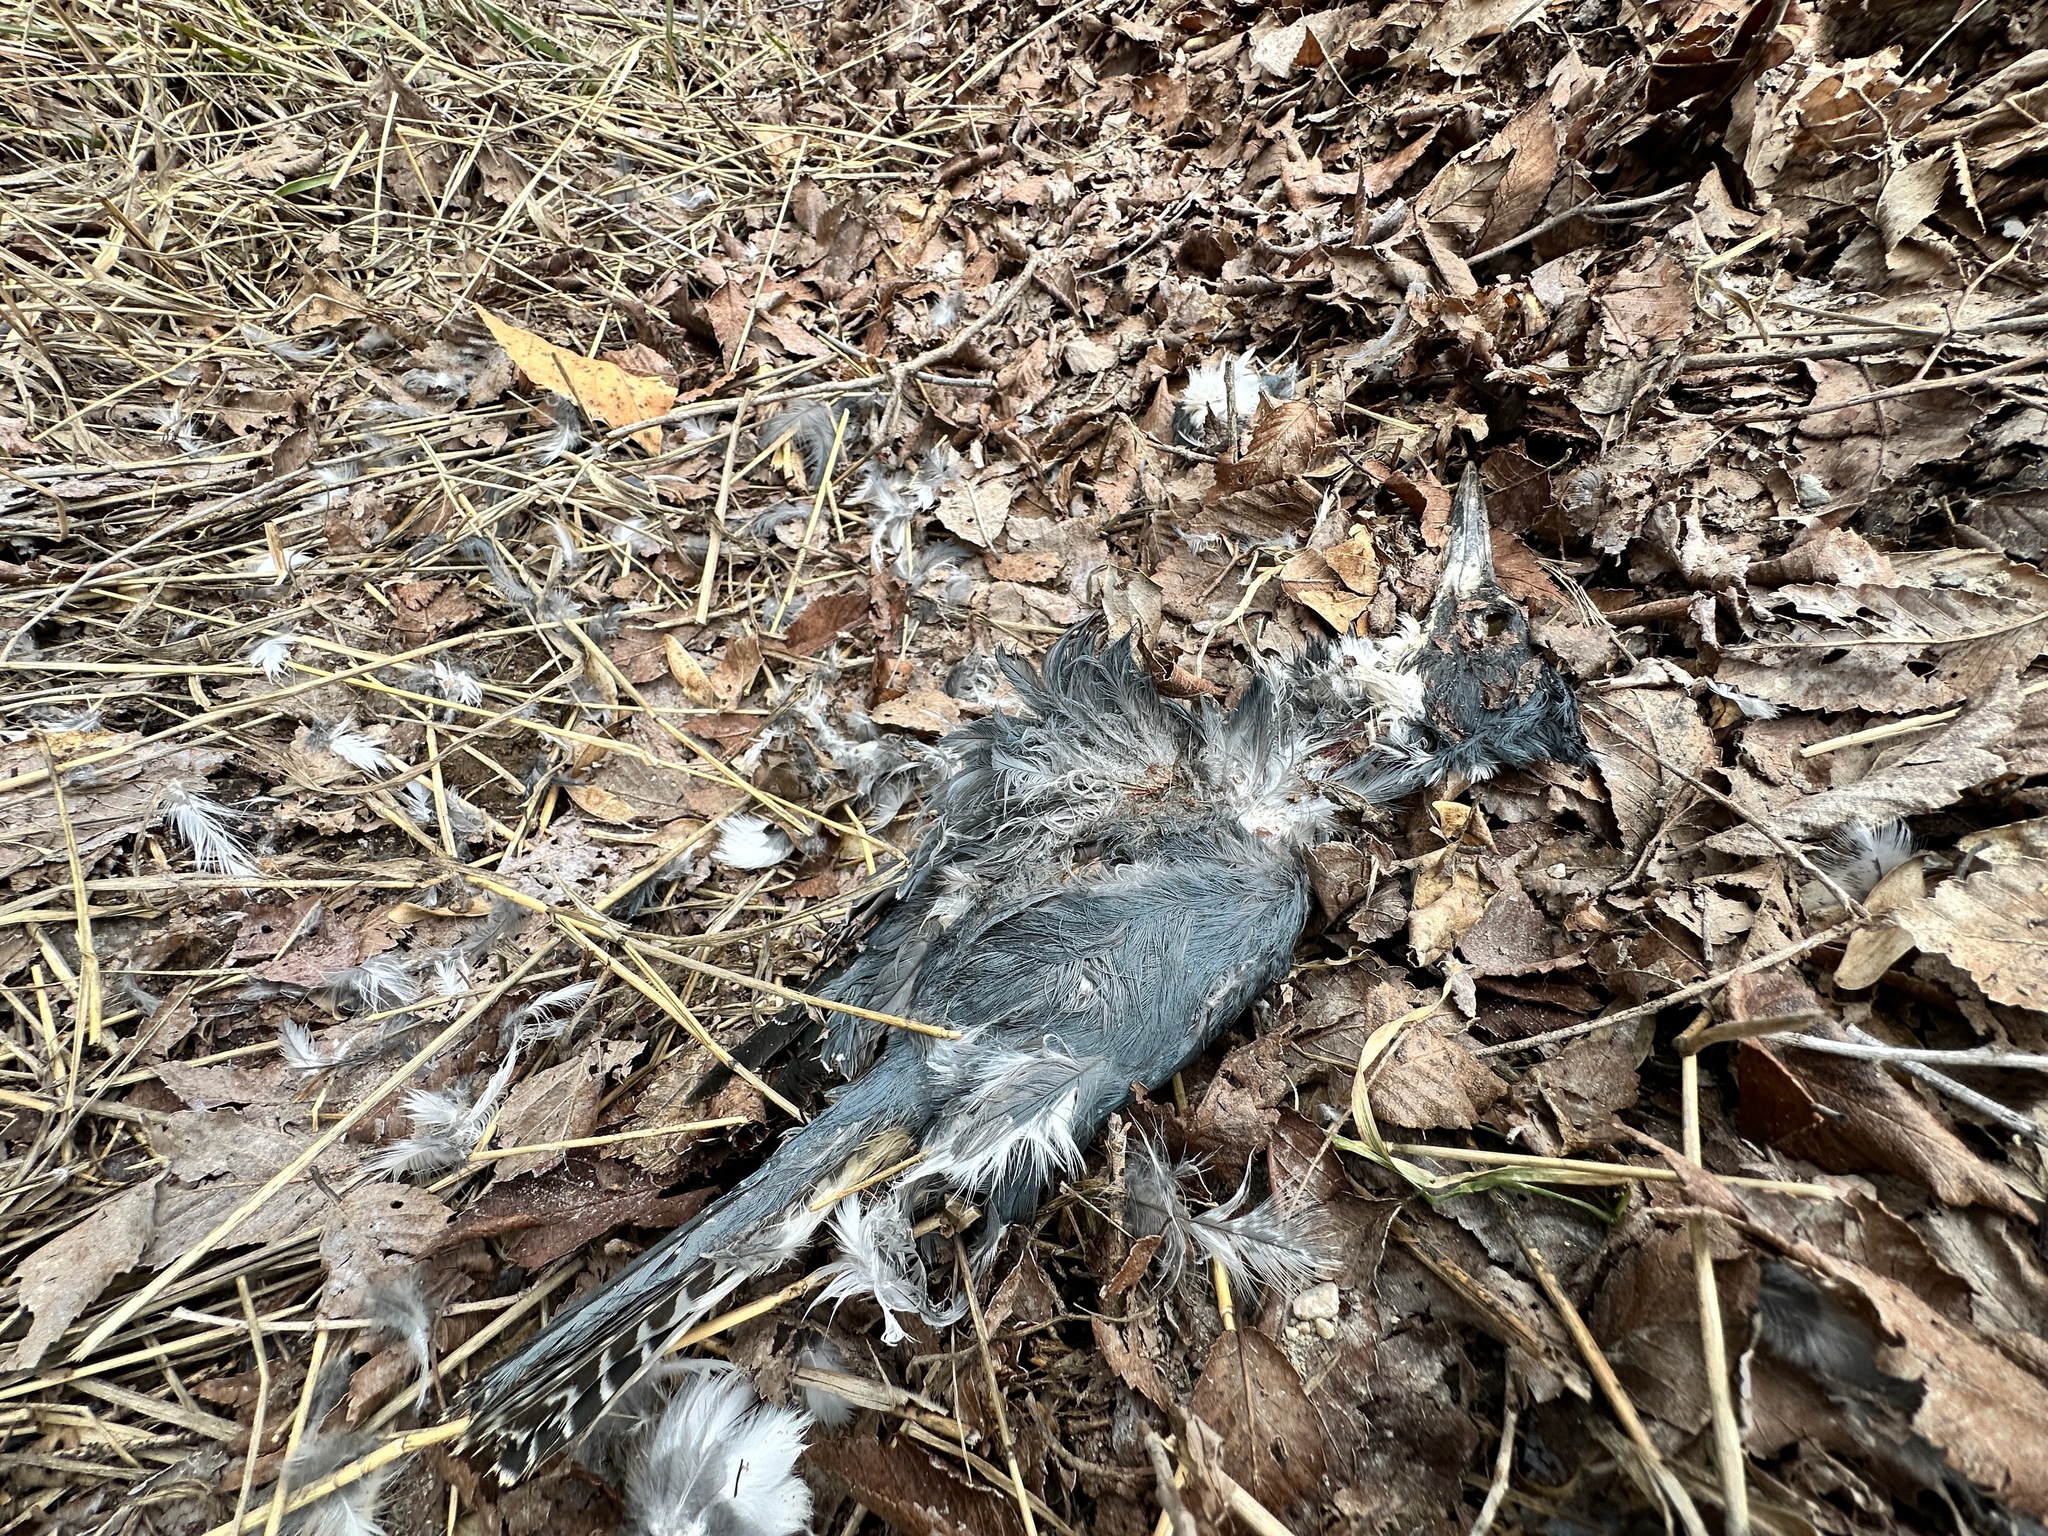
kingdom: Animalia
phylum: Chordata
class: Aves
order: Coraciiformes
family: Alcedinidae
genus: Megaceryle
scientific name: Megaceryle alcyon
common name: Belted kingfisher
